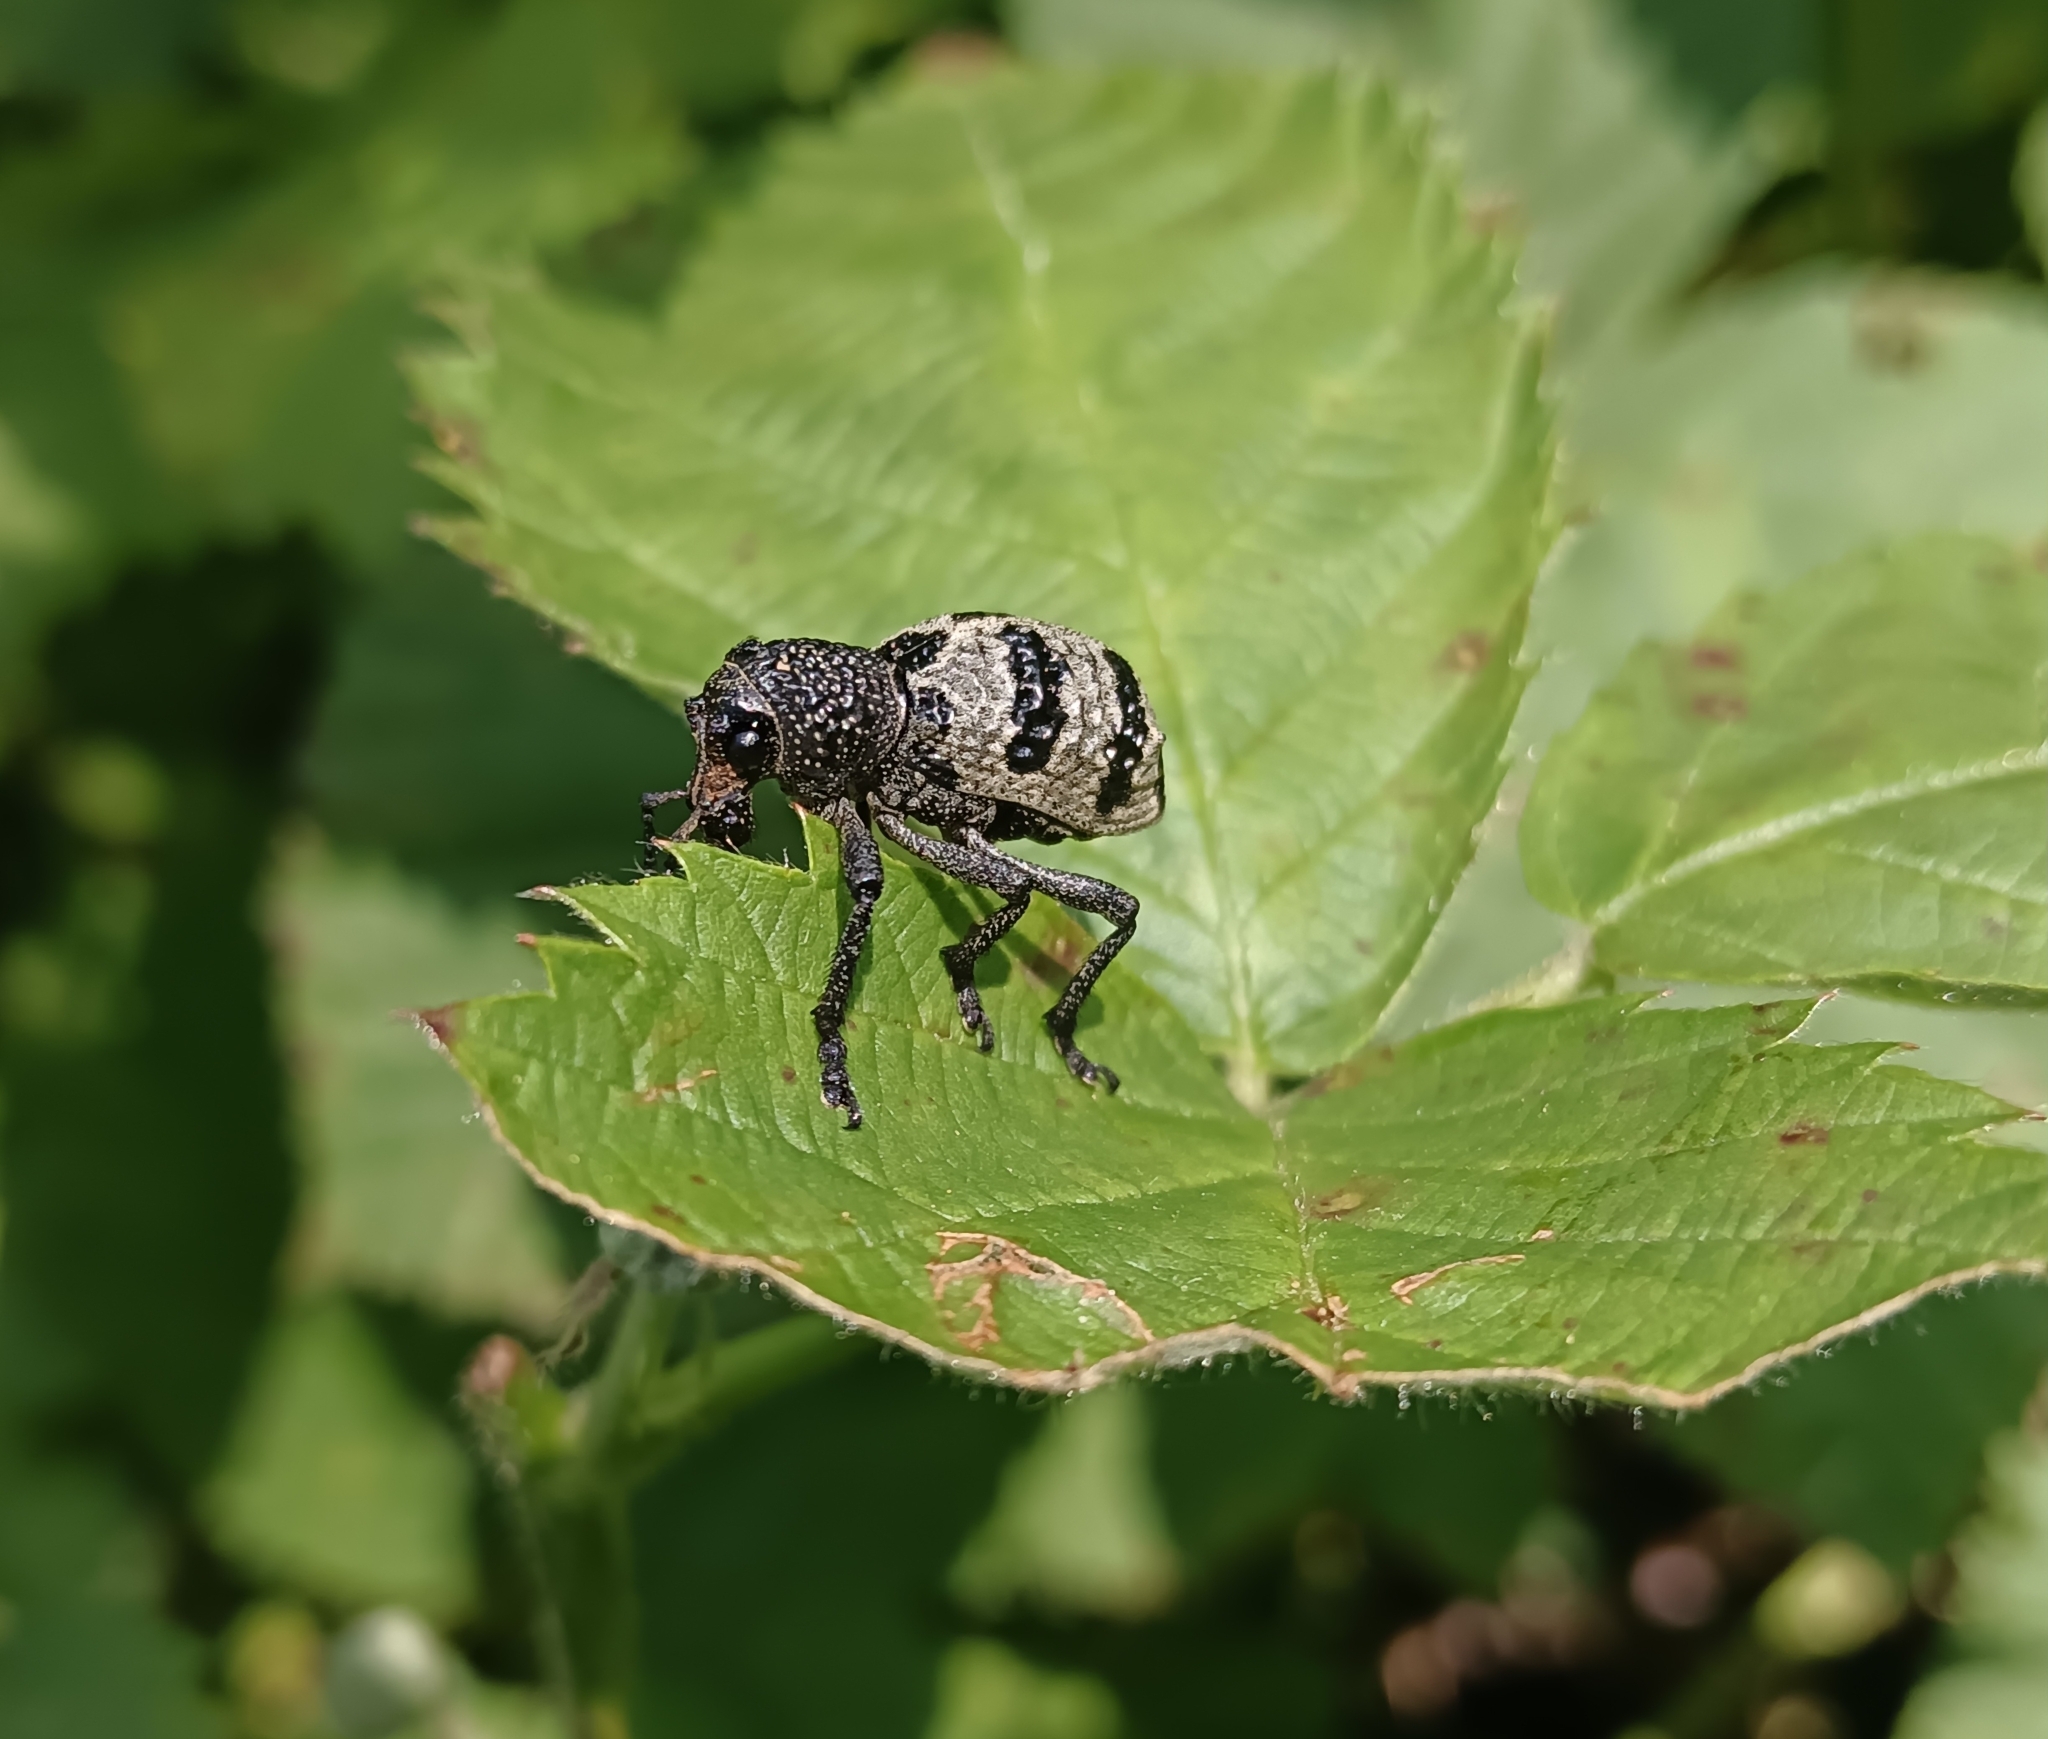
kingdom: Animalia
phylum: Arthropoda
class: Insecta
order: Coleoptera
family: Curculionidae
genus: Aegorhinus
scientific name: Aegorhinus superciliosus
